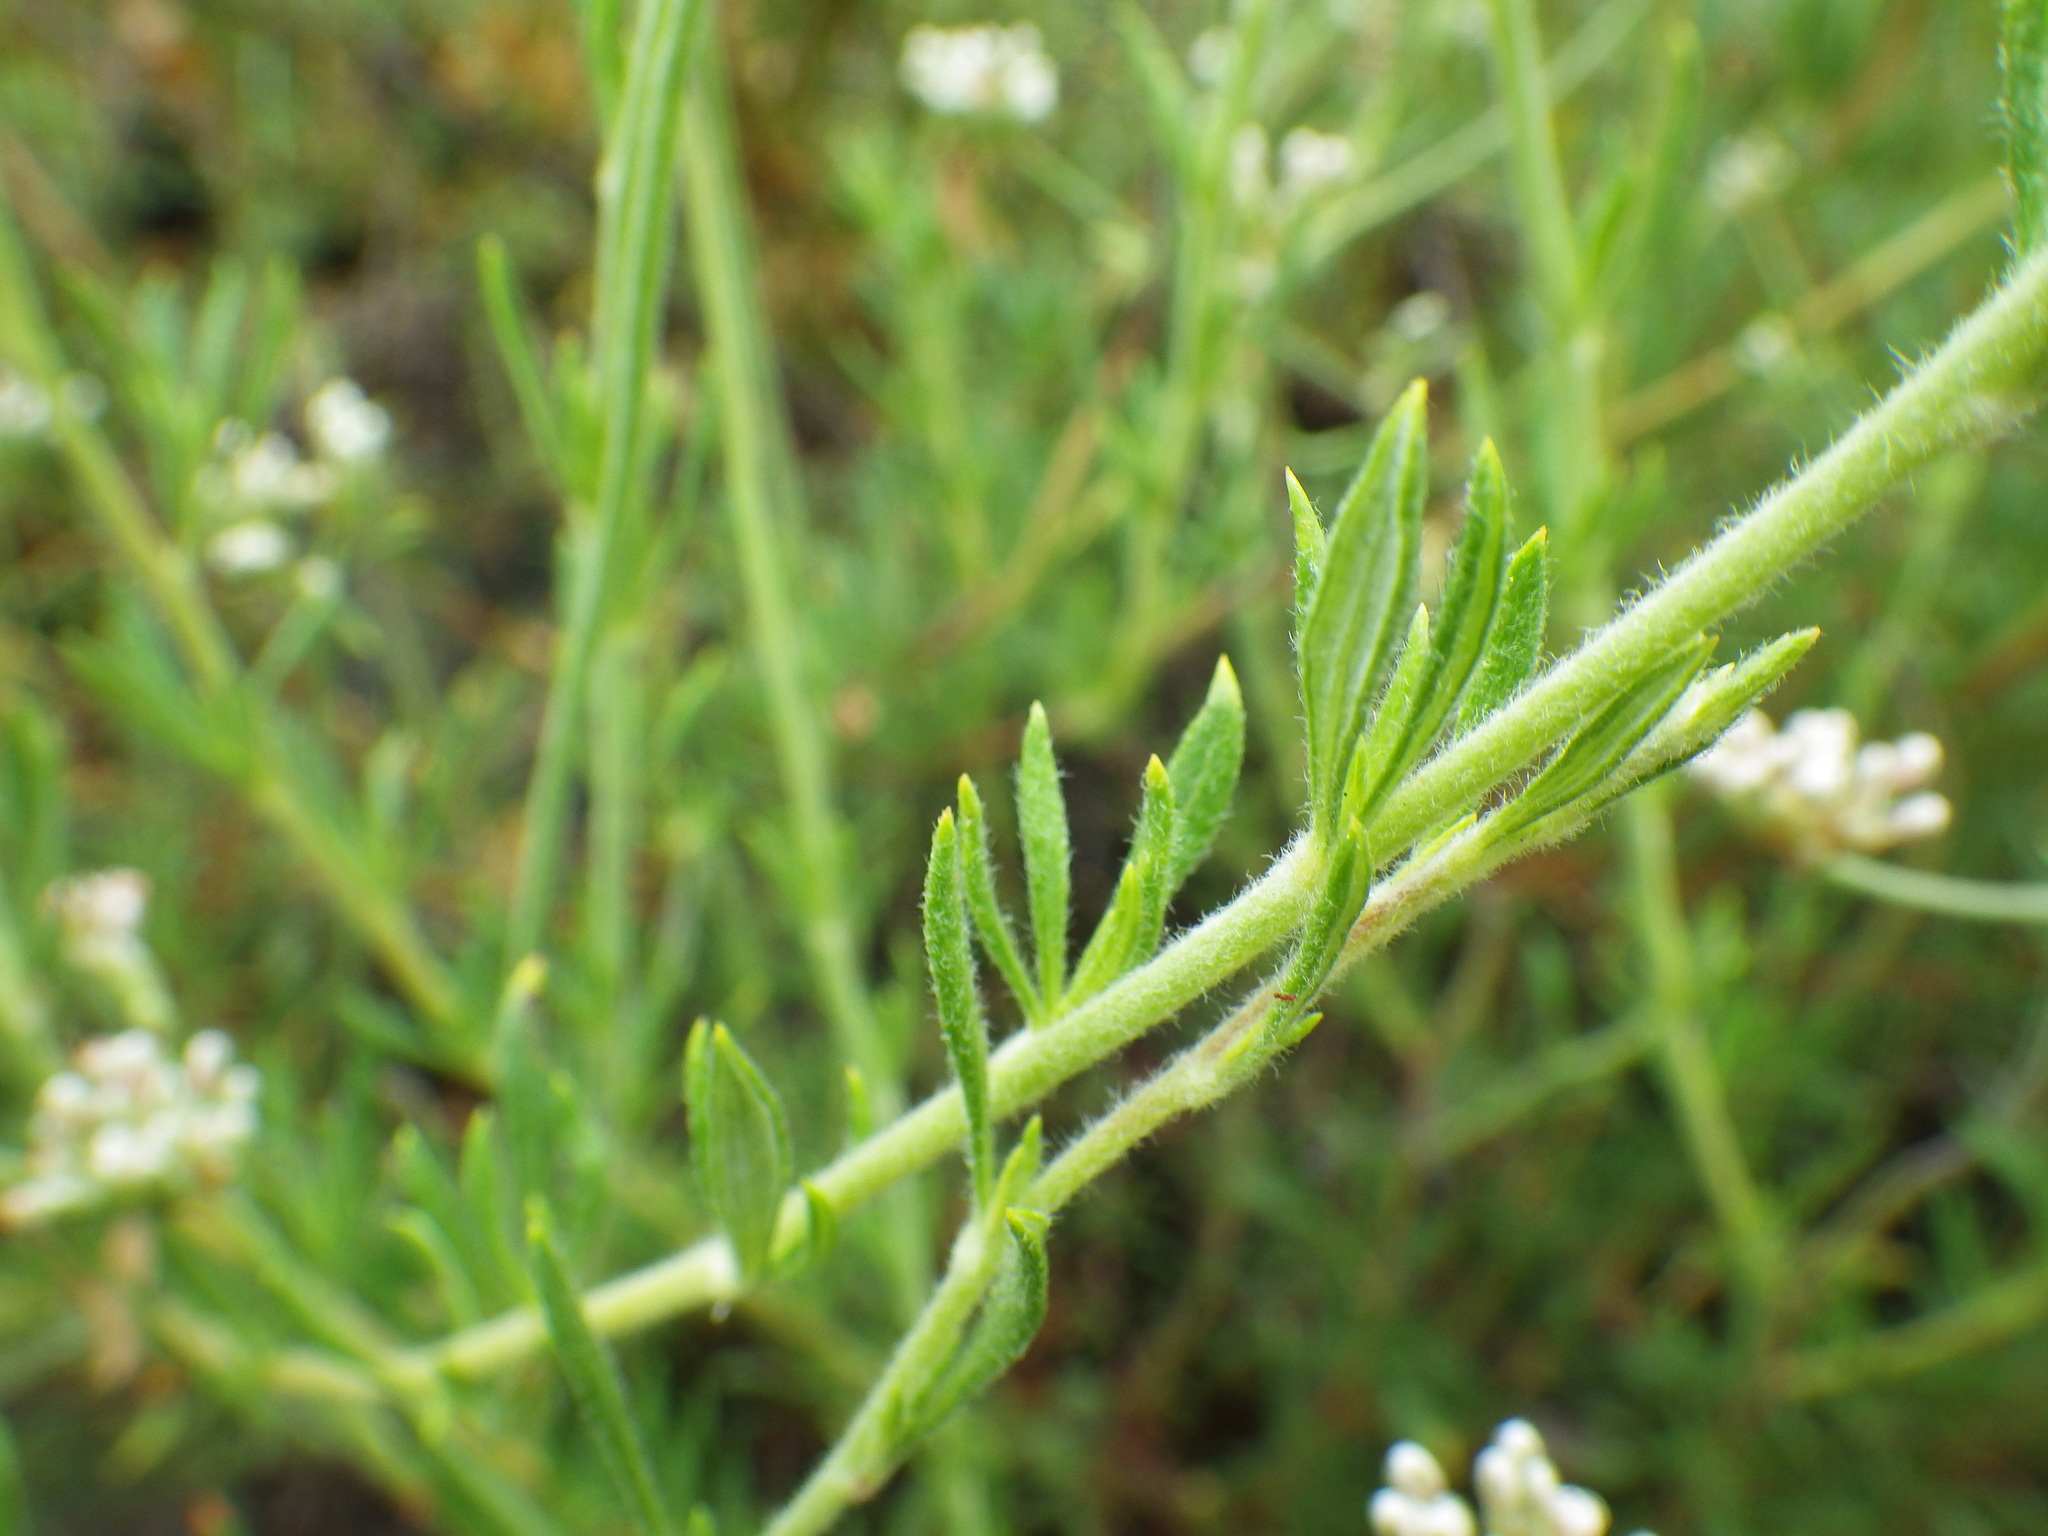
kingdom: Plantae
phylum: Tracheophyta
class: Magnoliopsida
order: Caryophyllales
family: Polygonaceae
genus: Eriogonum
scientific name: Eriogonum fasciculatum
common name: California wild buckwheat
